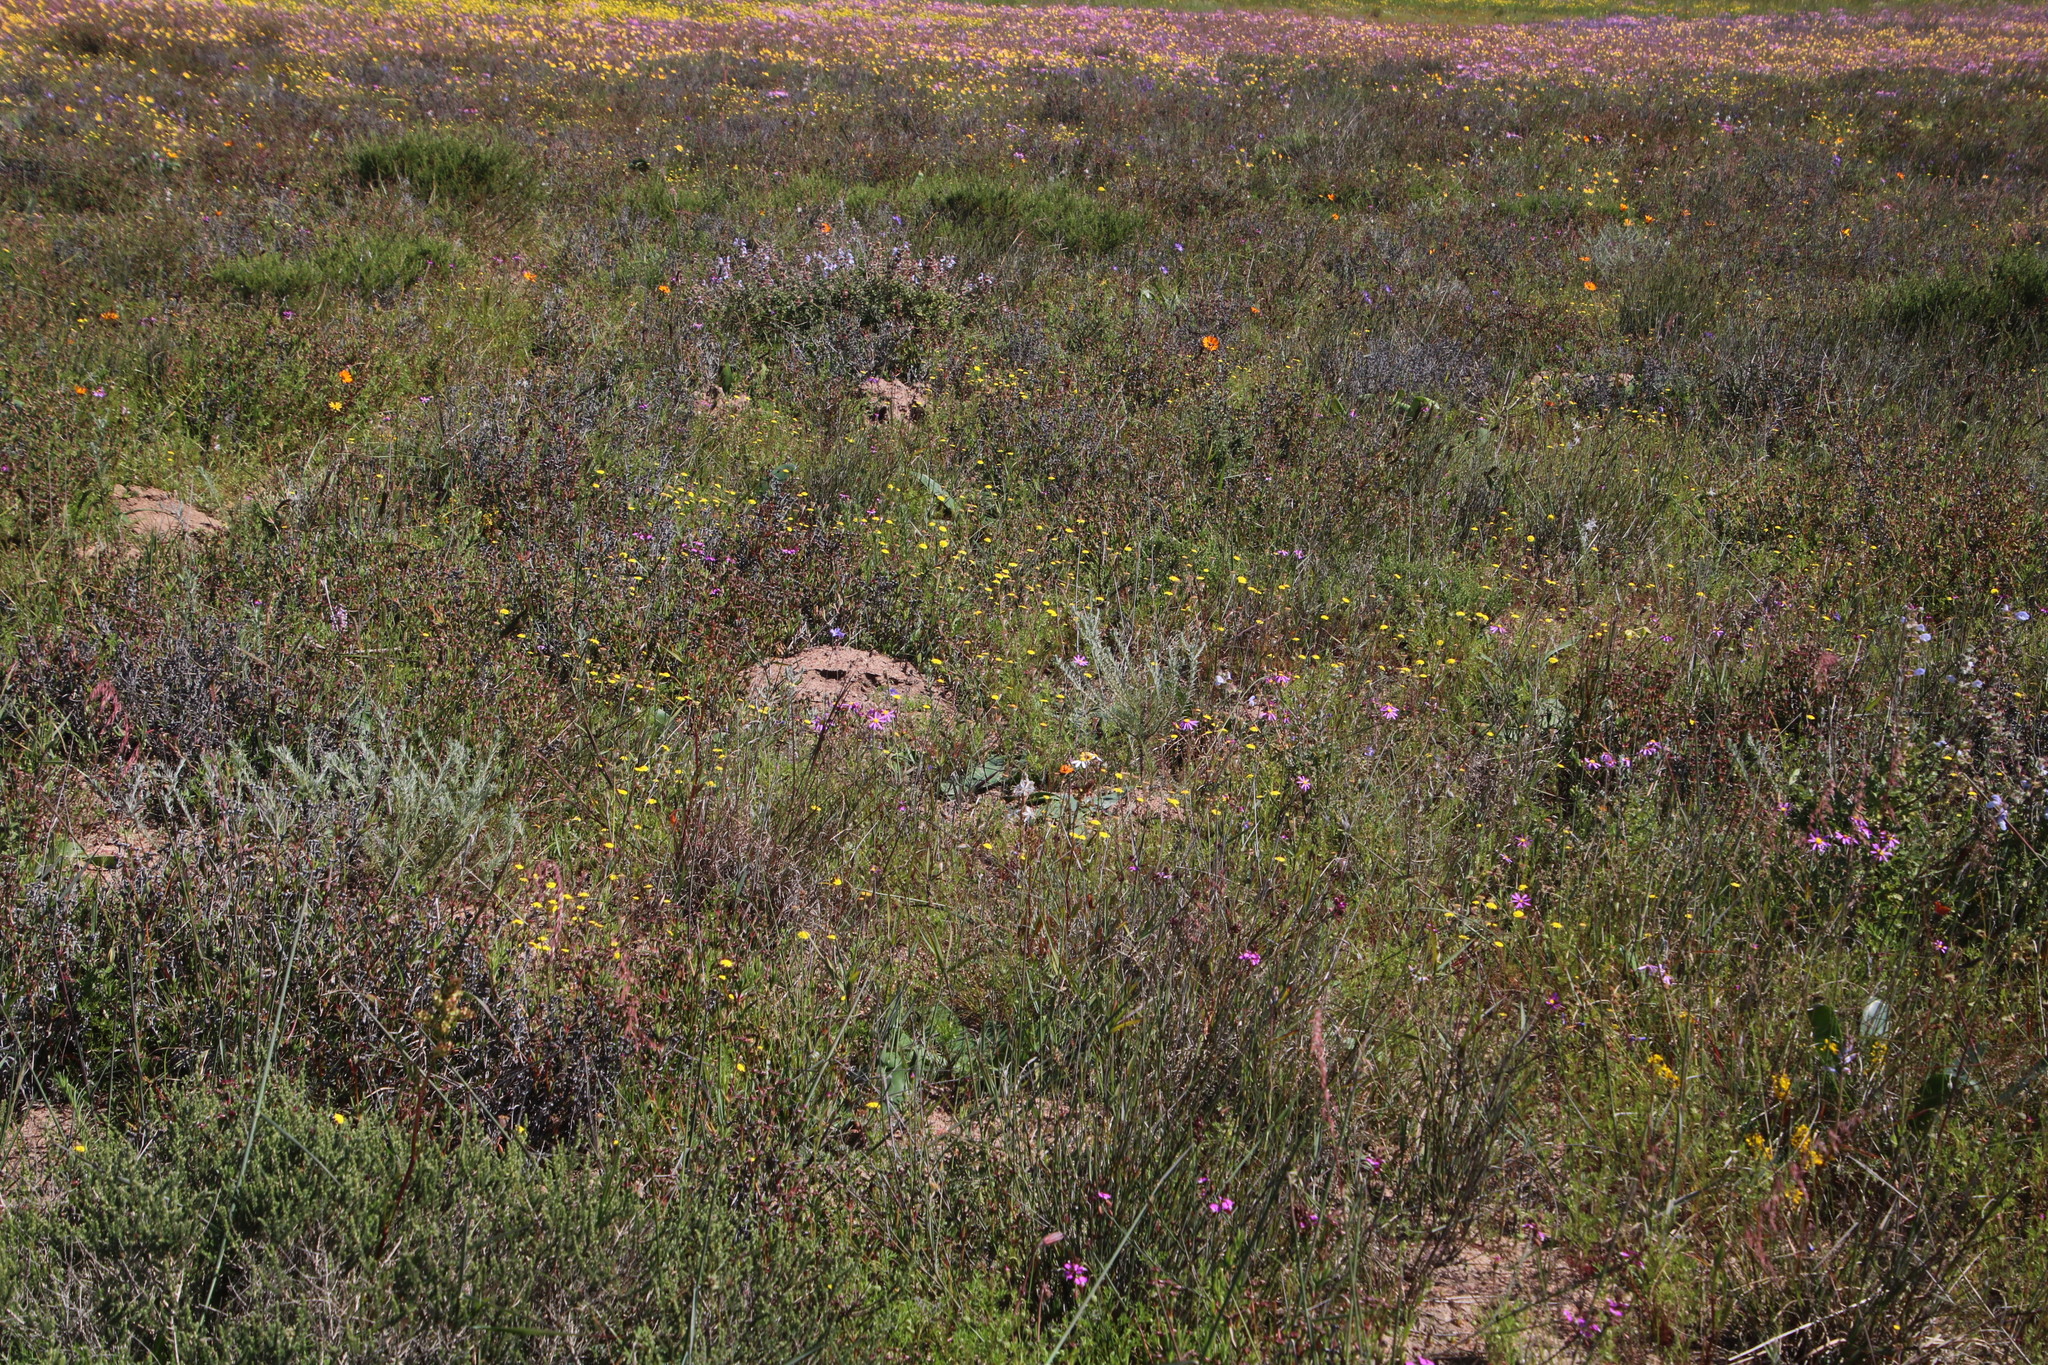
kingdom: Plantae
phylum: Tracheophyta
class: Magnoliopsida
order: Asterales
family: Asteraceae
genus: Cotula
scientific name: Cotula pruinosa
